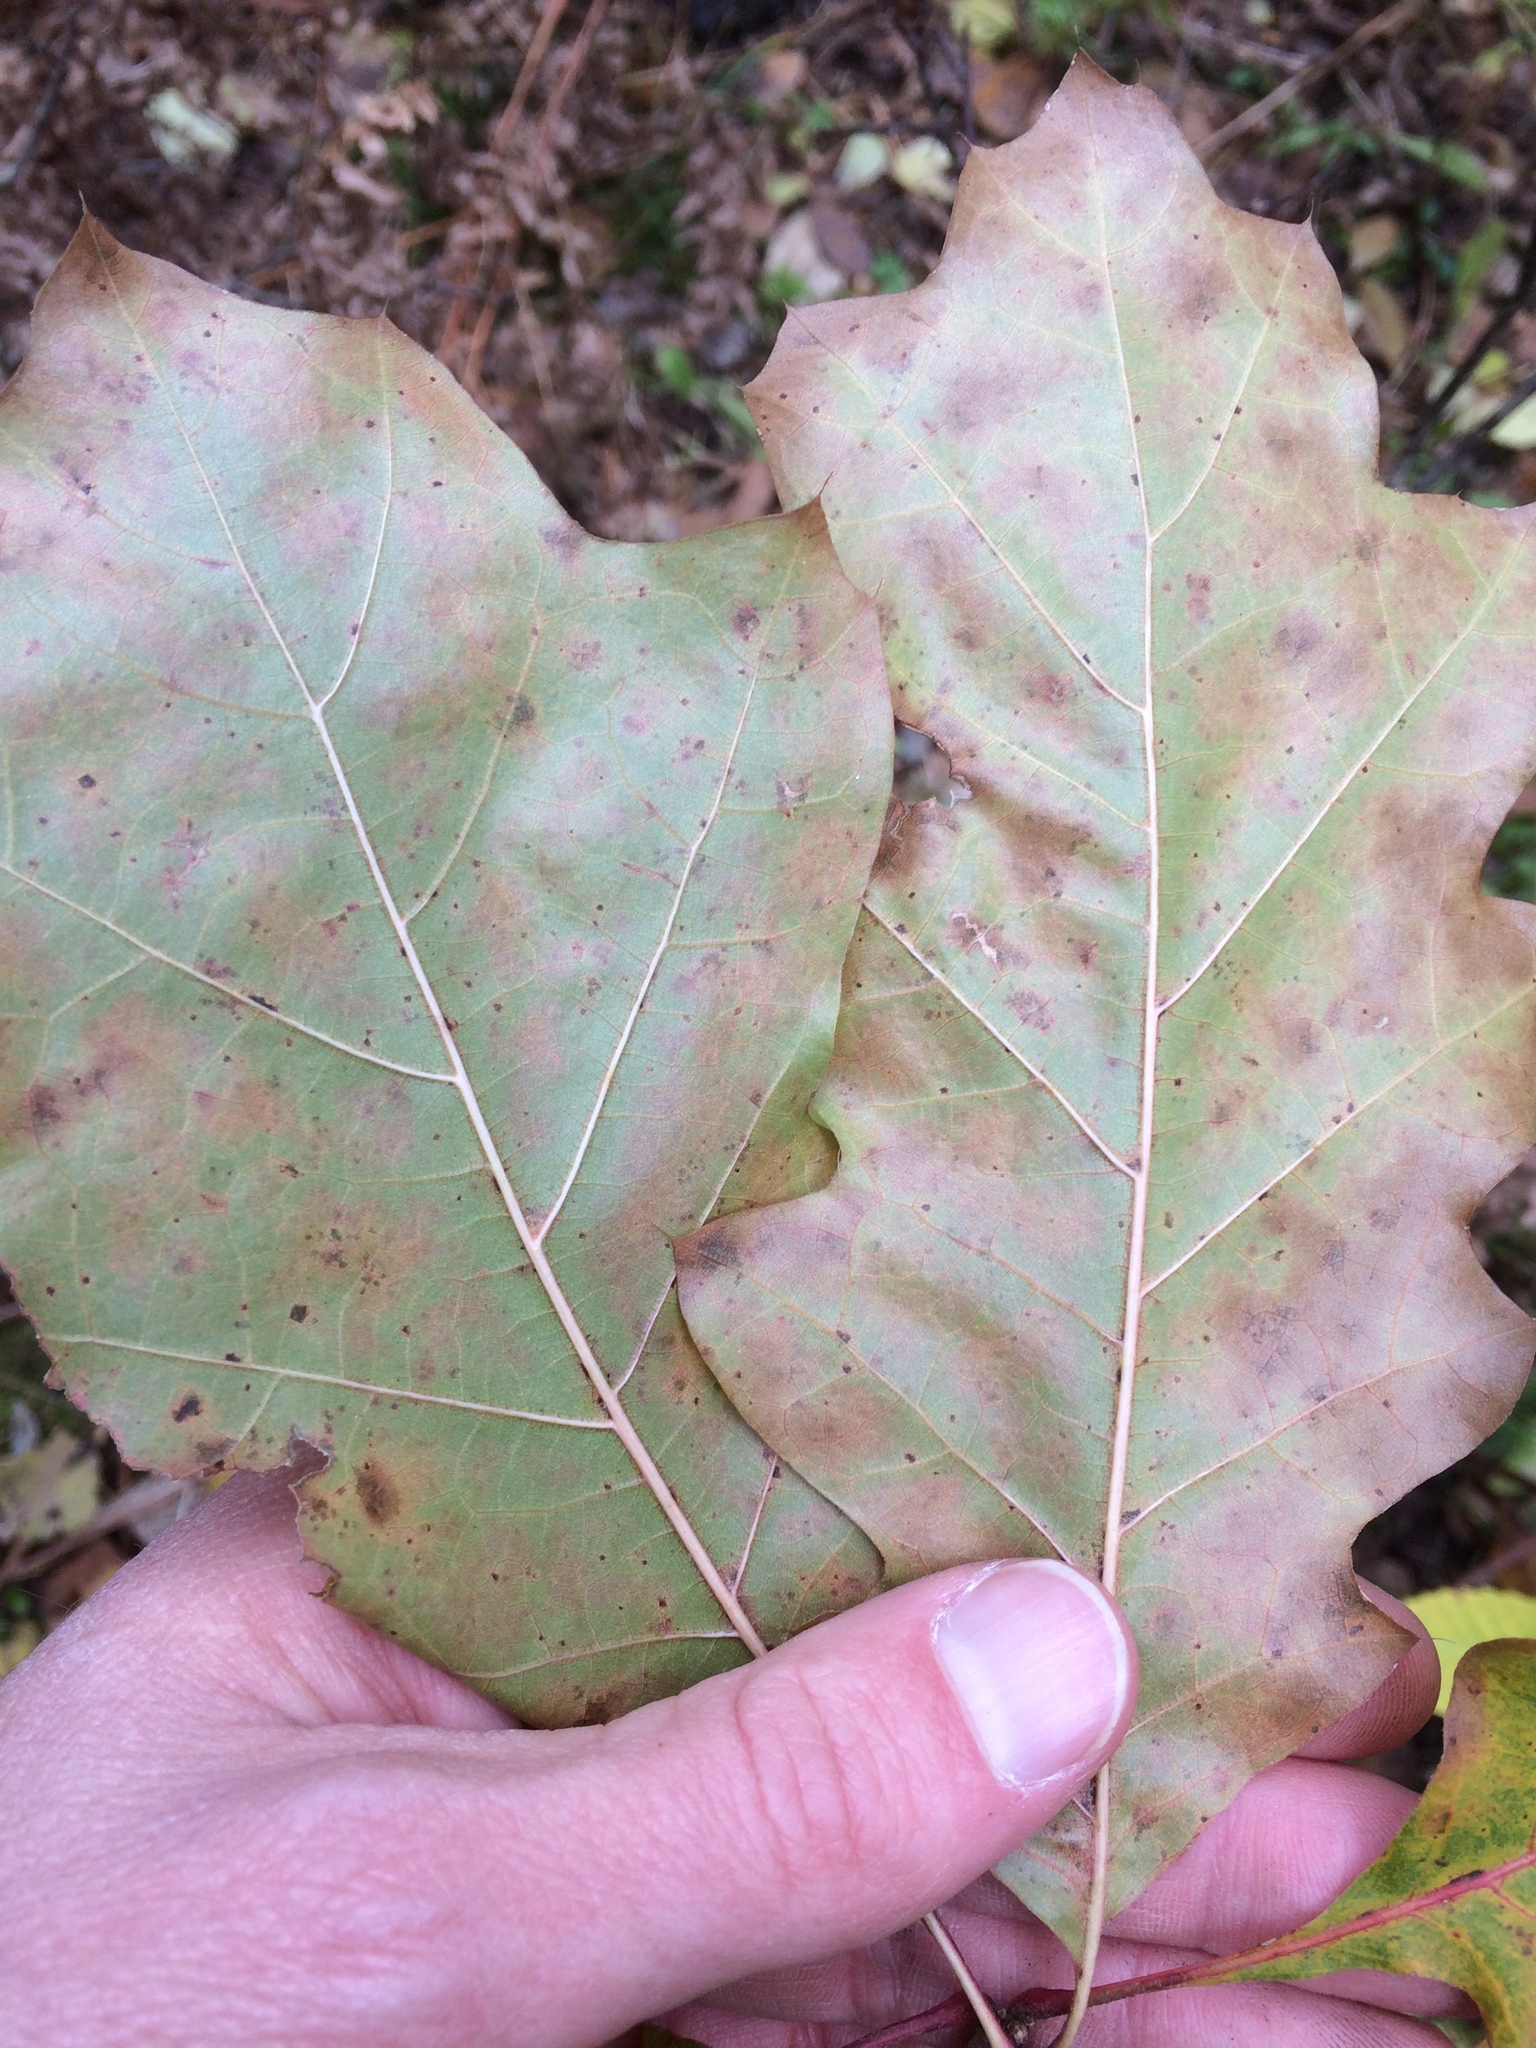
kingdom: Plantae
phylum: Tracheophyta
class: Magnoliopsida
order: Fagales
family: Fagaceae
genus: Quercus
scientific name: Quercus rubra
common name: Red oak
